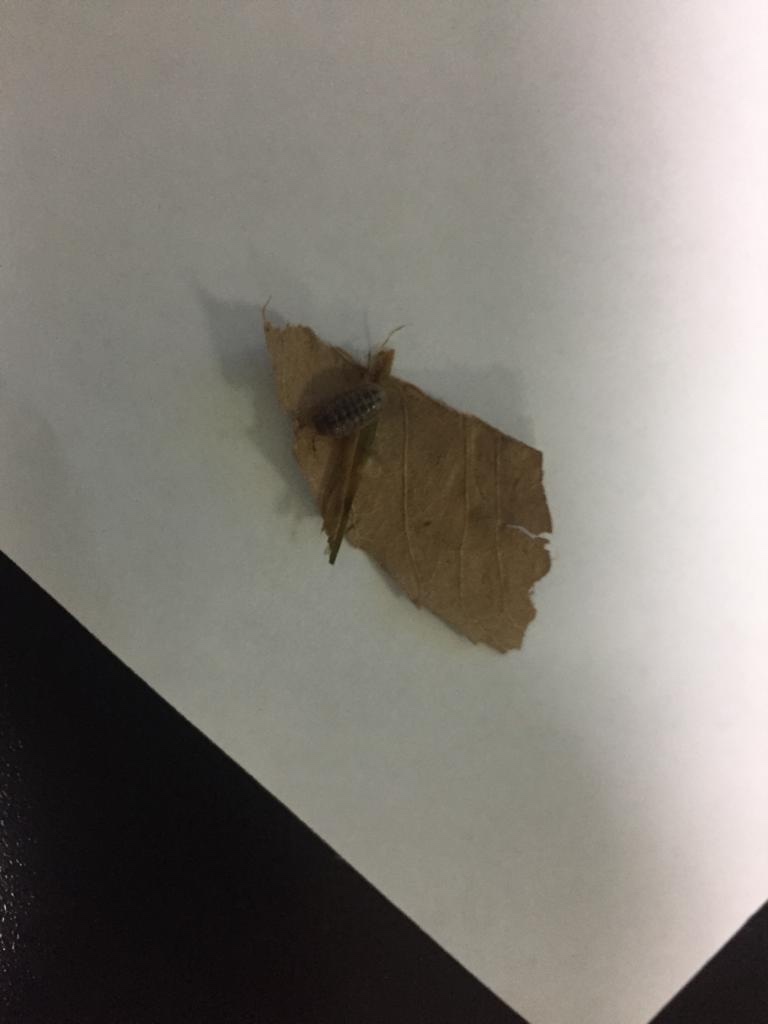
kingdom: Animalia
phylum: Arthropoda
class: Malacostraca
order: Isopoda
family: Armadillidiidae
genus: Armadillidium
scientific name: Armadillidium vulgare
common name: Common pill woodlouse
